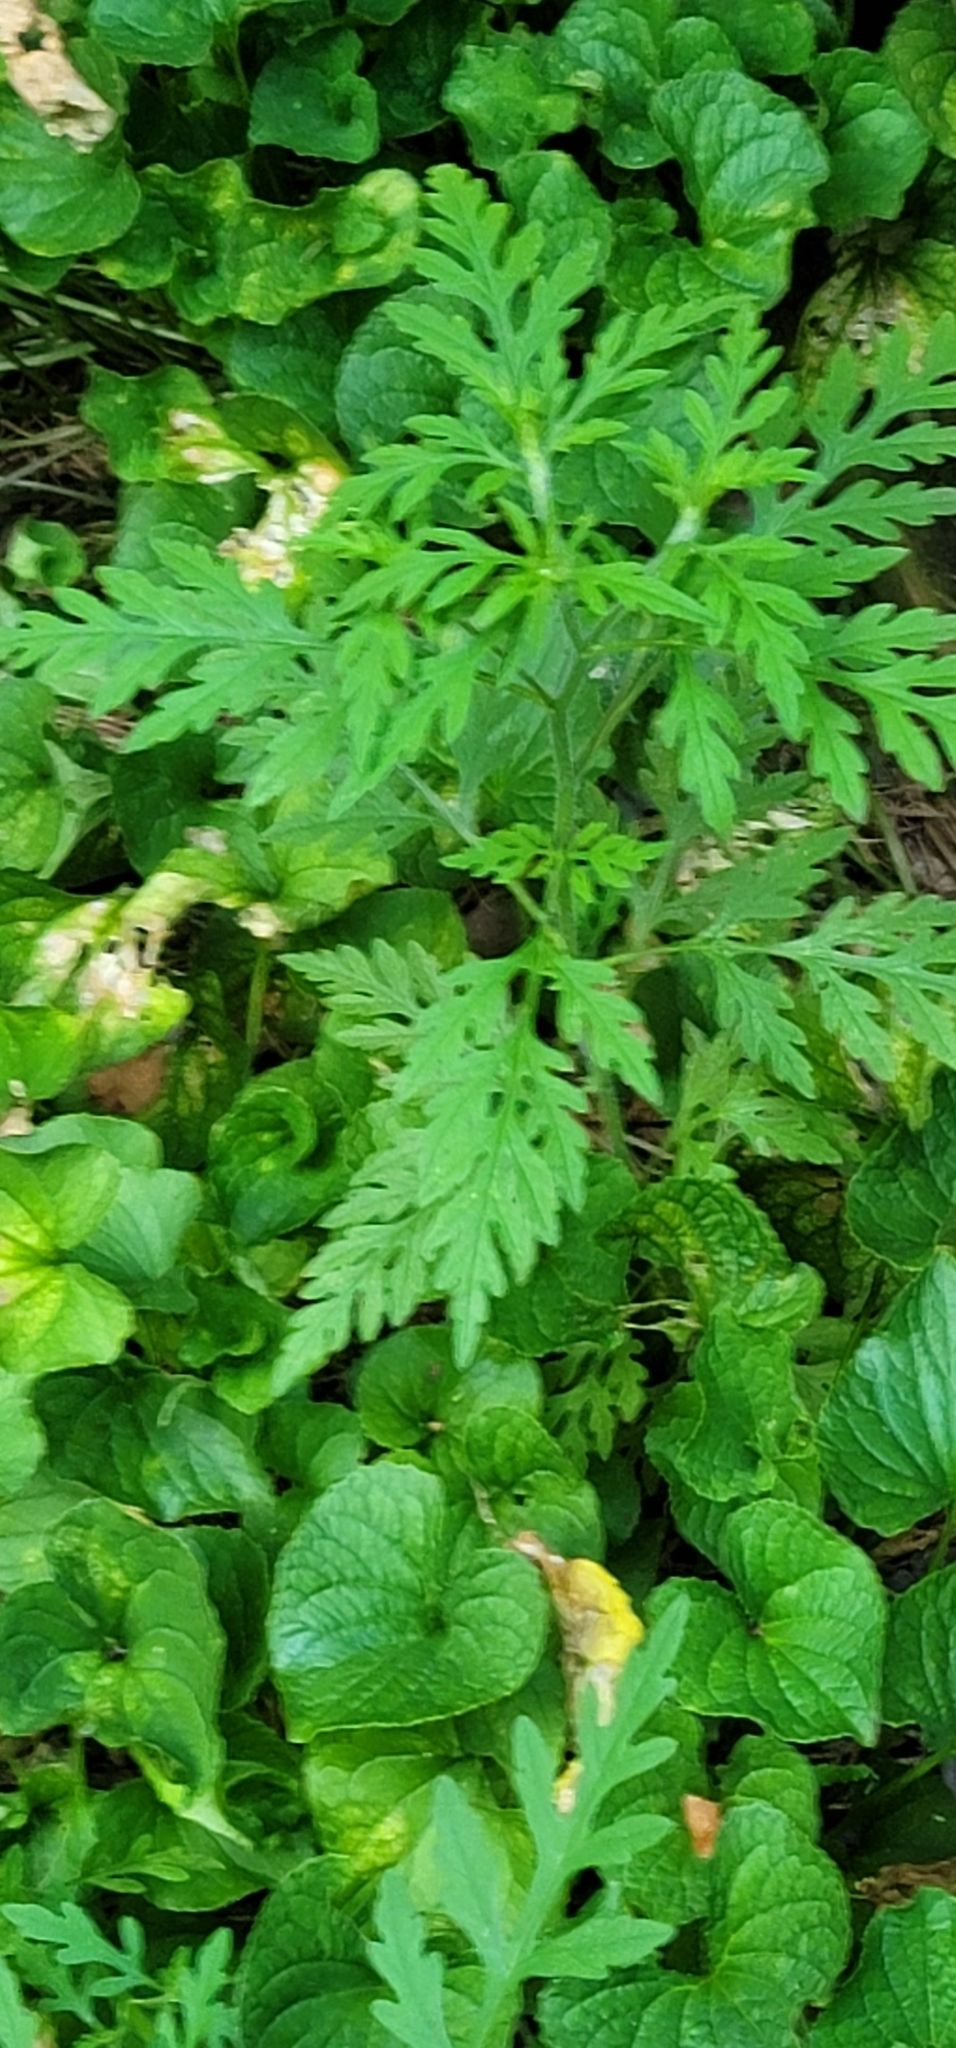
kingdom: Plantae
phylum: Tracheophyta
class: Magnoliopsida
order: Asterales
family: Asteraceae
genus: Ambrosia
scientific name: Ambrosia artemisiifolia
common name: Annual ragweed
